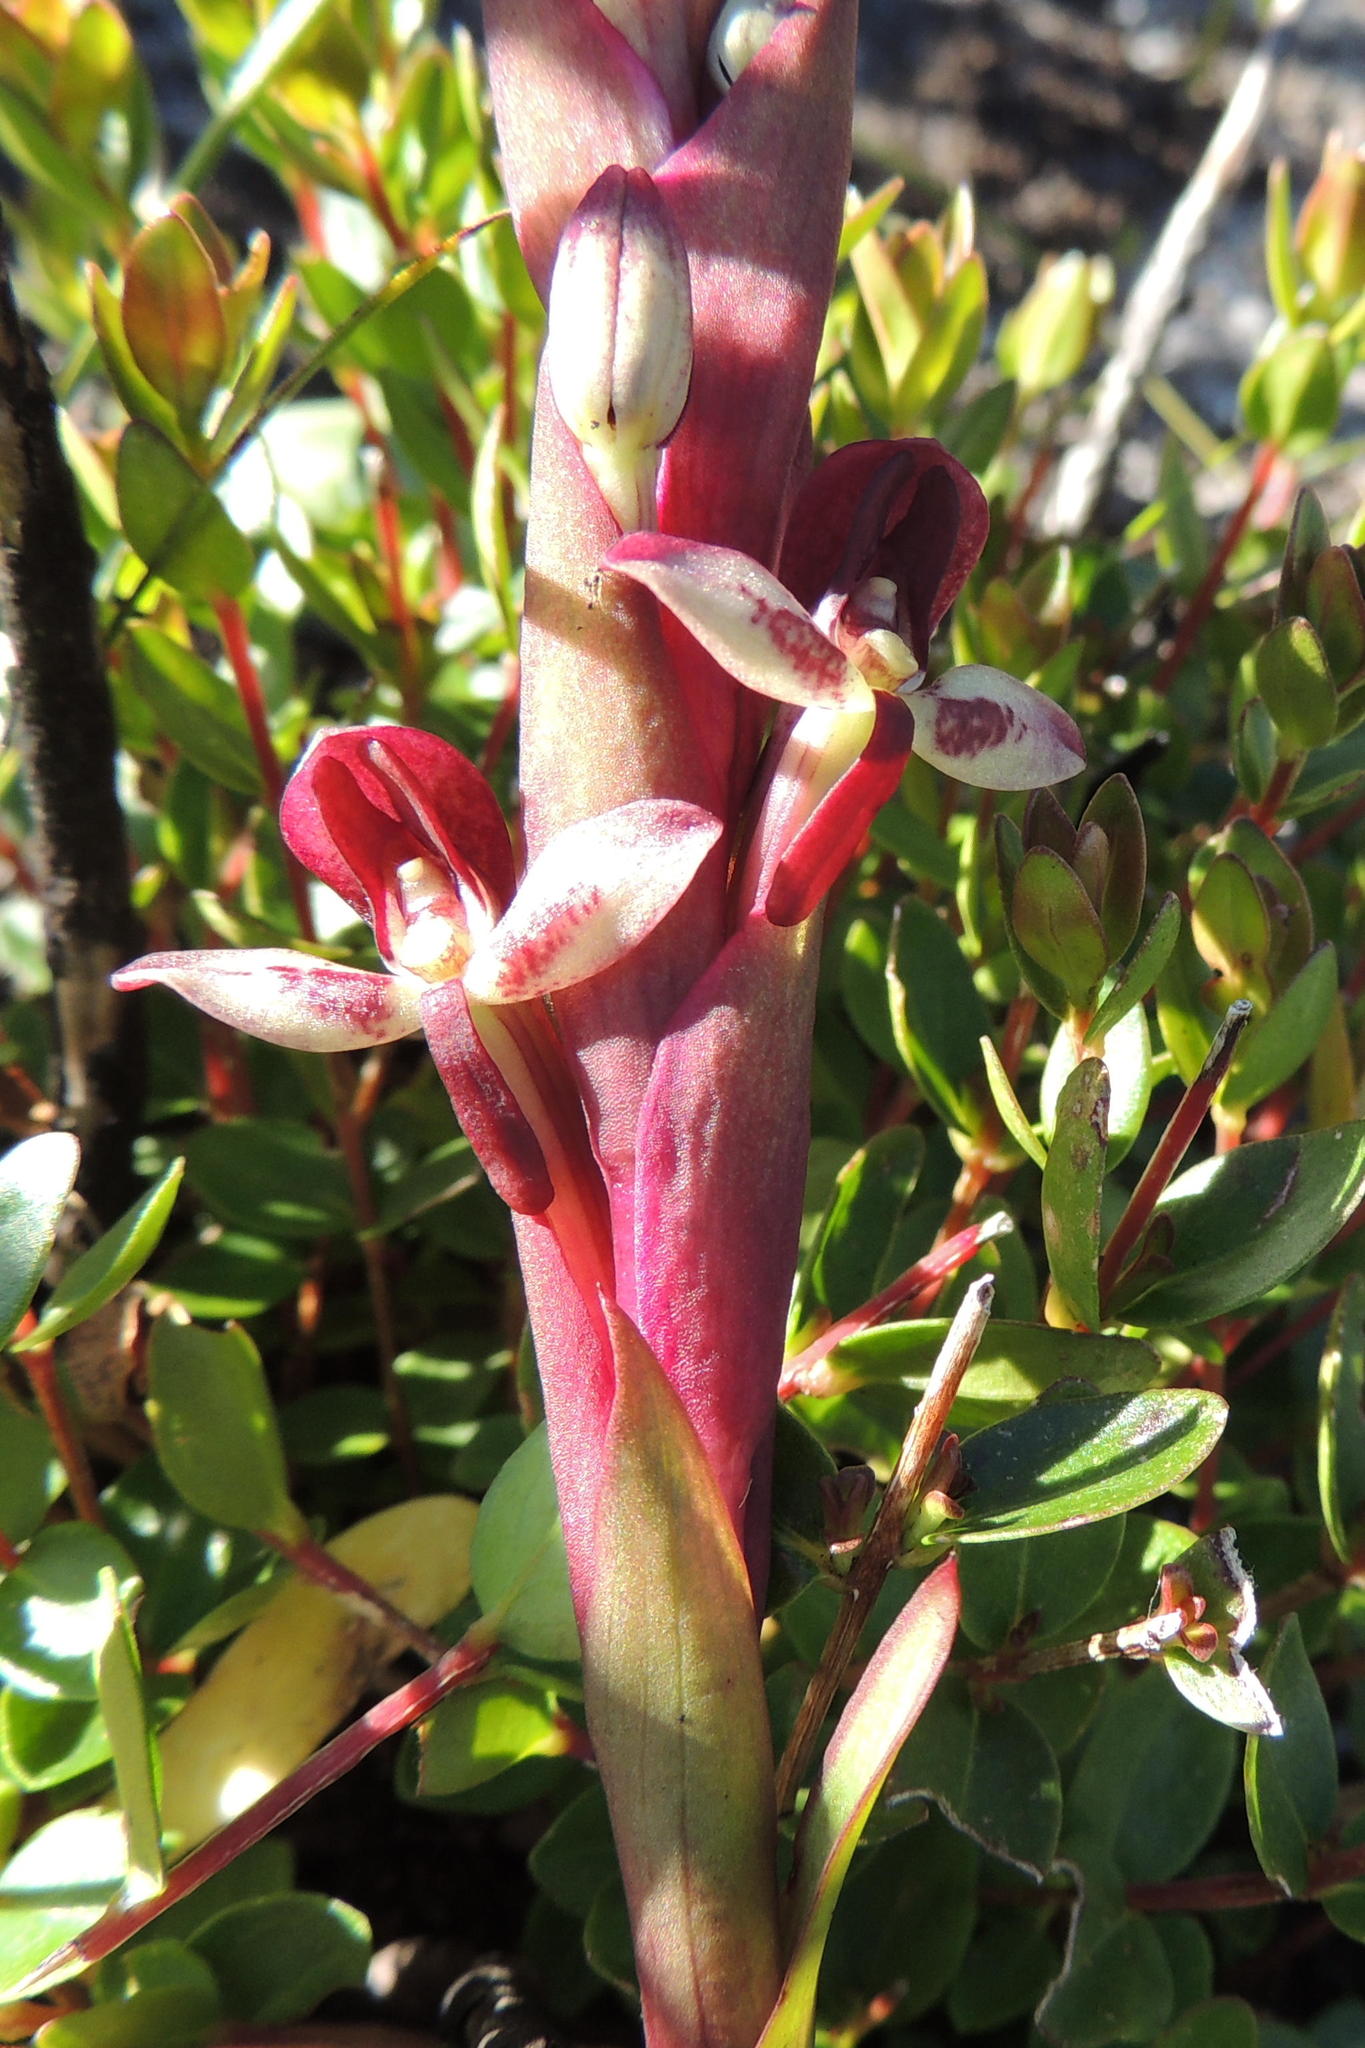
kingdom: Plantae
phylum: Tracheophyta
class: Liliopsida
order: Asparagales
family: Orchidaceae
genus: Disa
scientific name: Disa ophrydea
